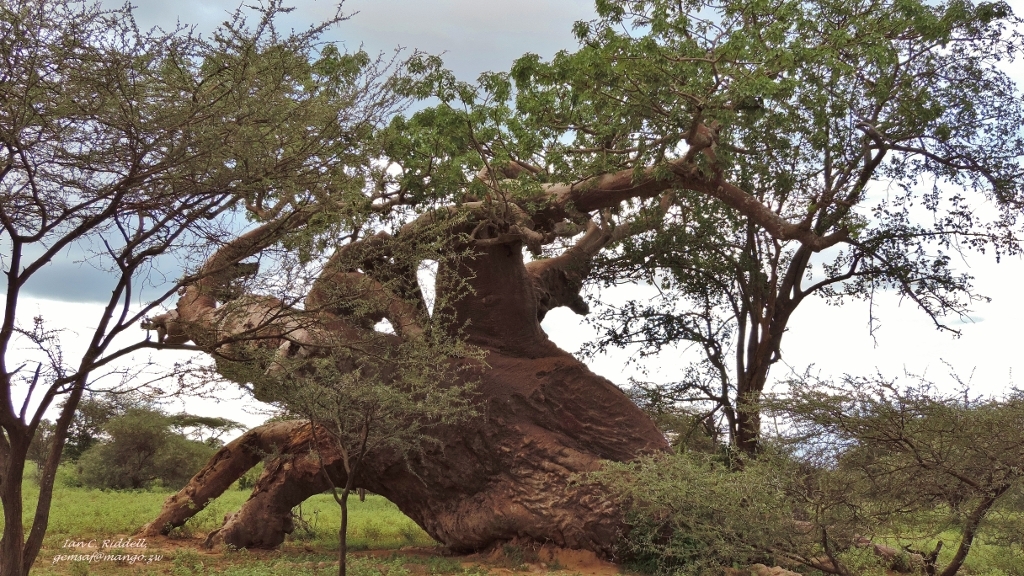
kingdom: Plantae
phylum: Tracheophyta
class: Magnoliopsida
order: Malvales
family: Malvaceae
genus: Adansonia
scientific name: Adansonia digitata
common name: Dead-rat-tree
